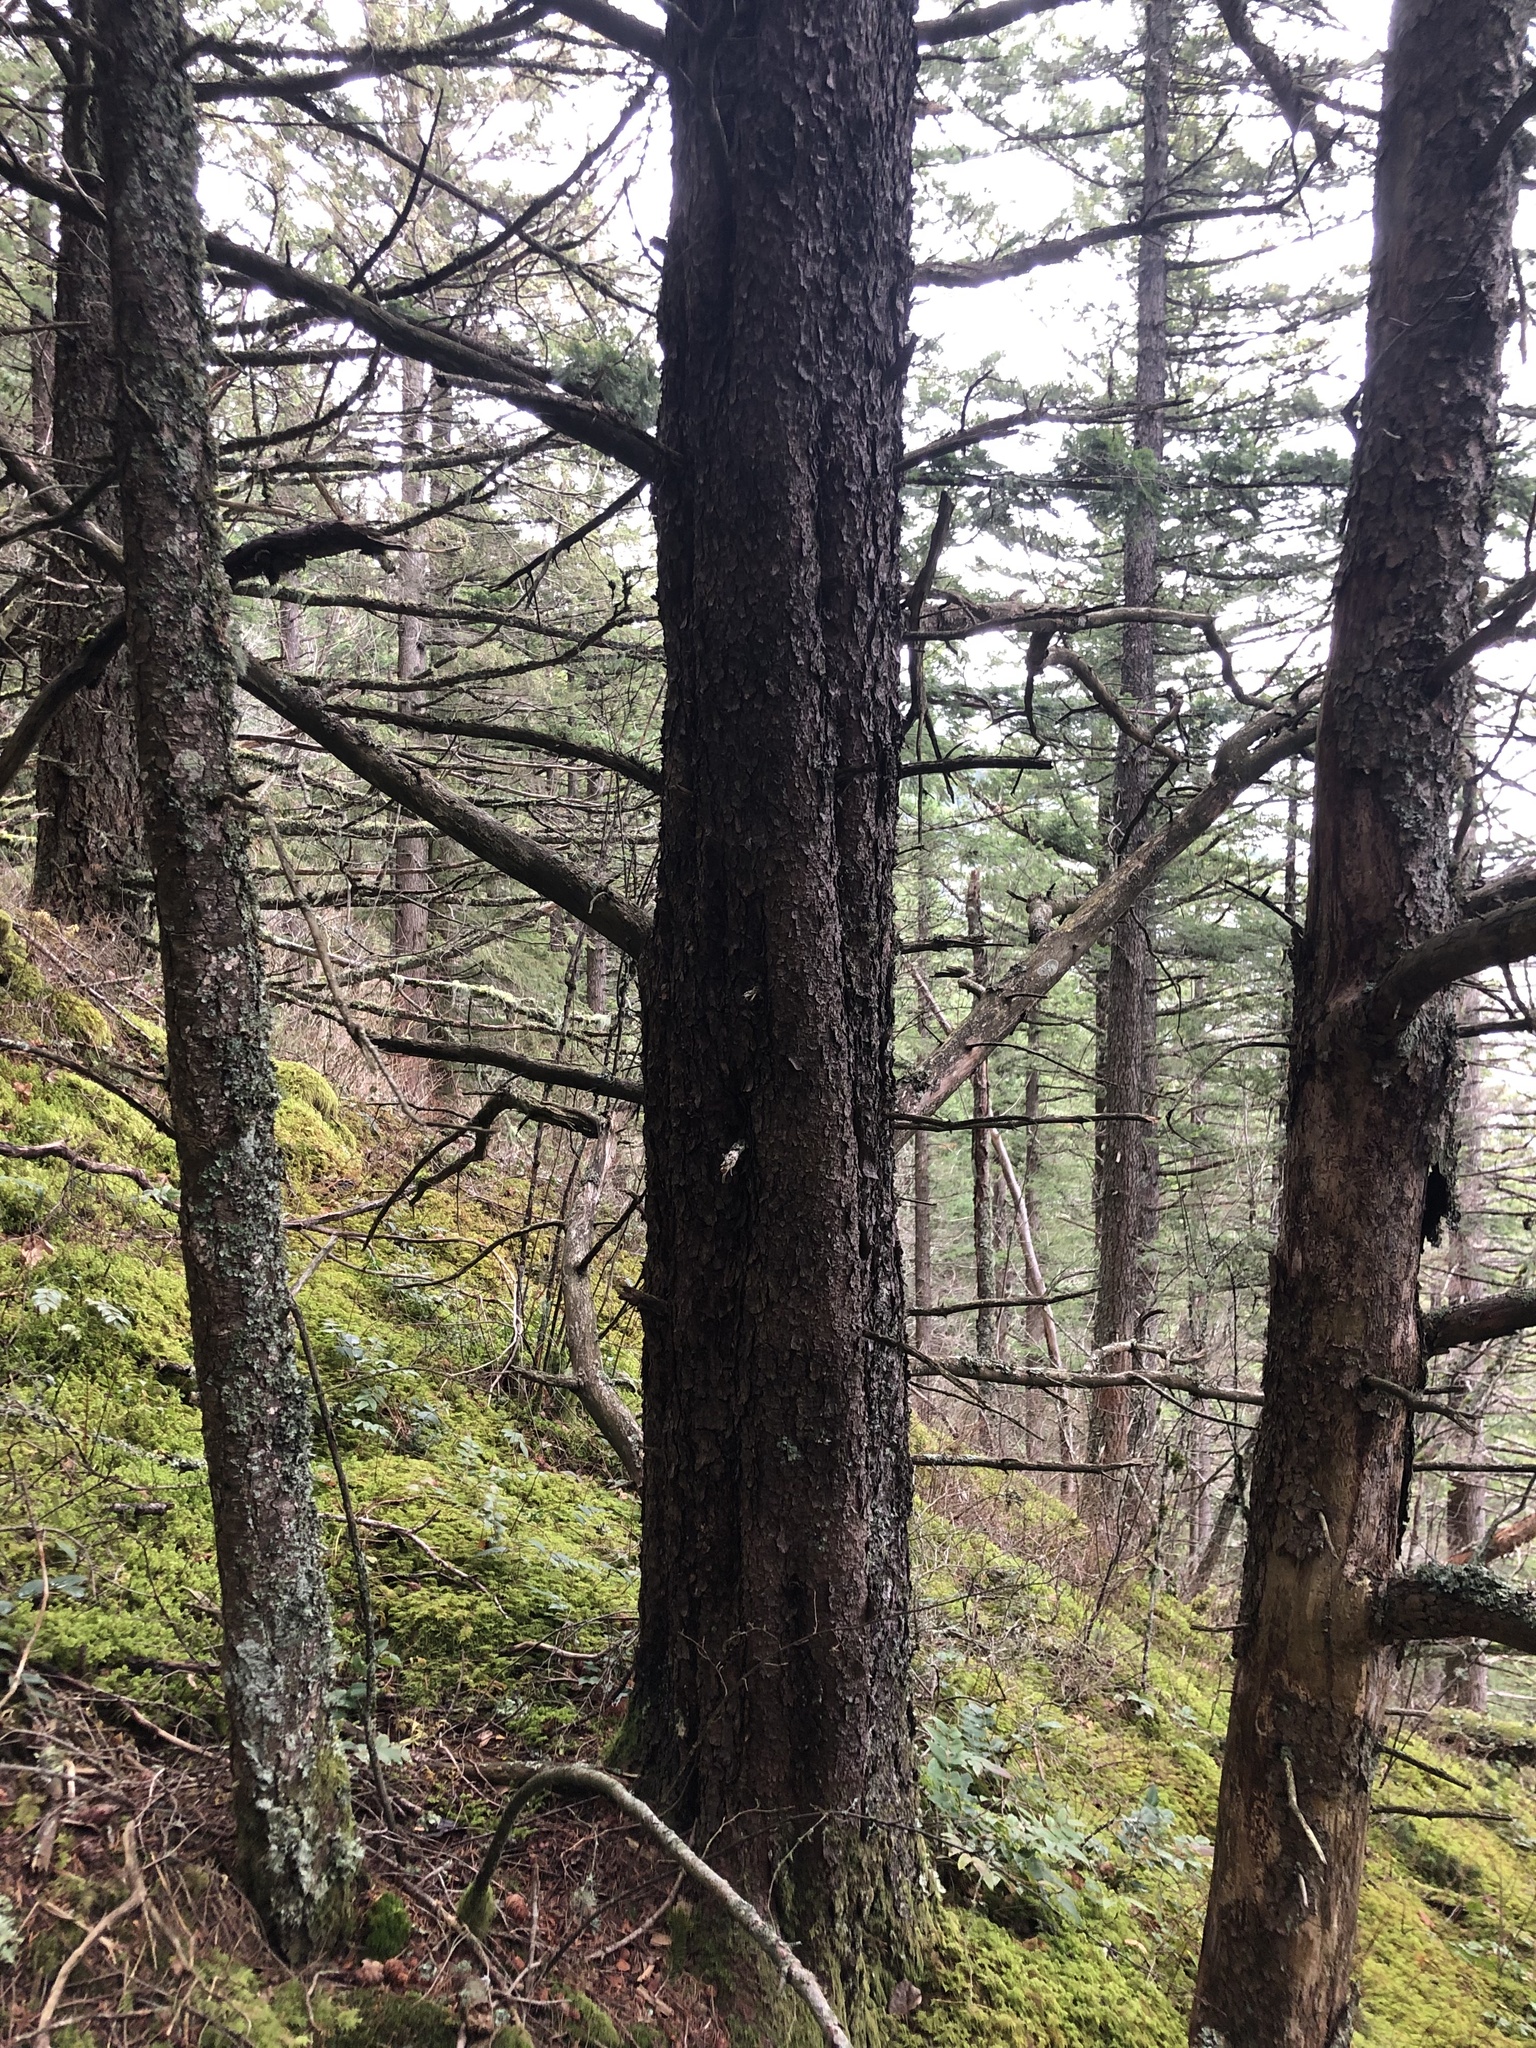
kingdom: Plantae
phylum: Tracheophyta
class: Pinopsida
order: Pinales
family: Pinaceae
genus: Pinus
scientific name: Pinus contorta
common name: Lodgepole pine
